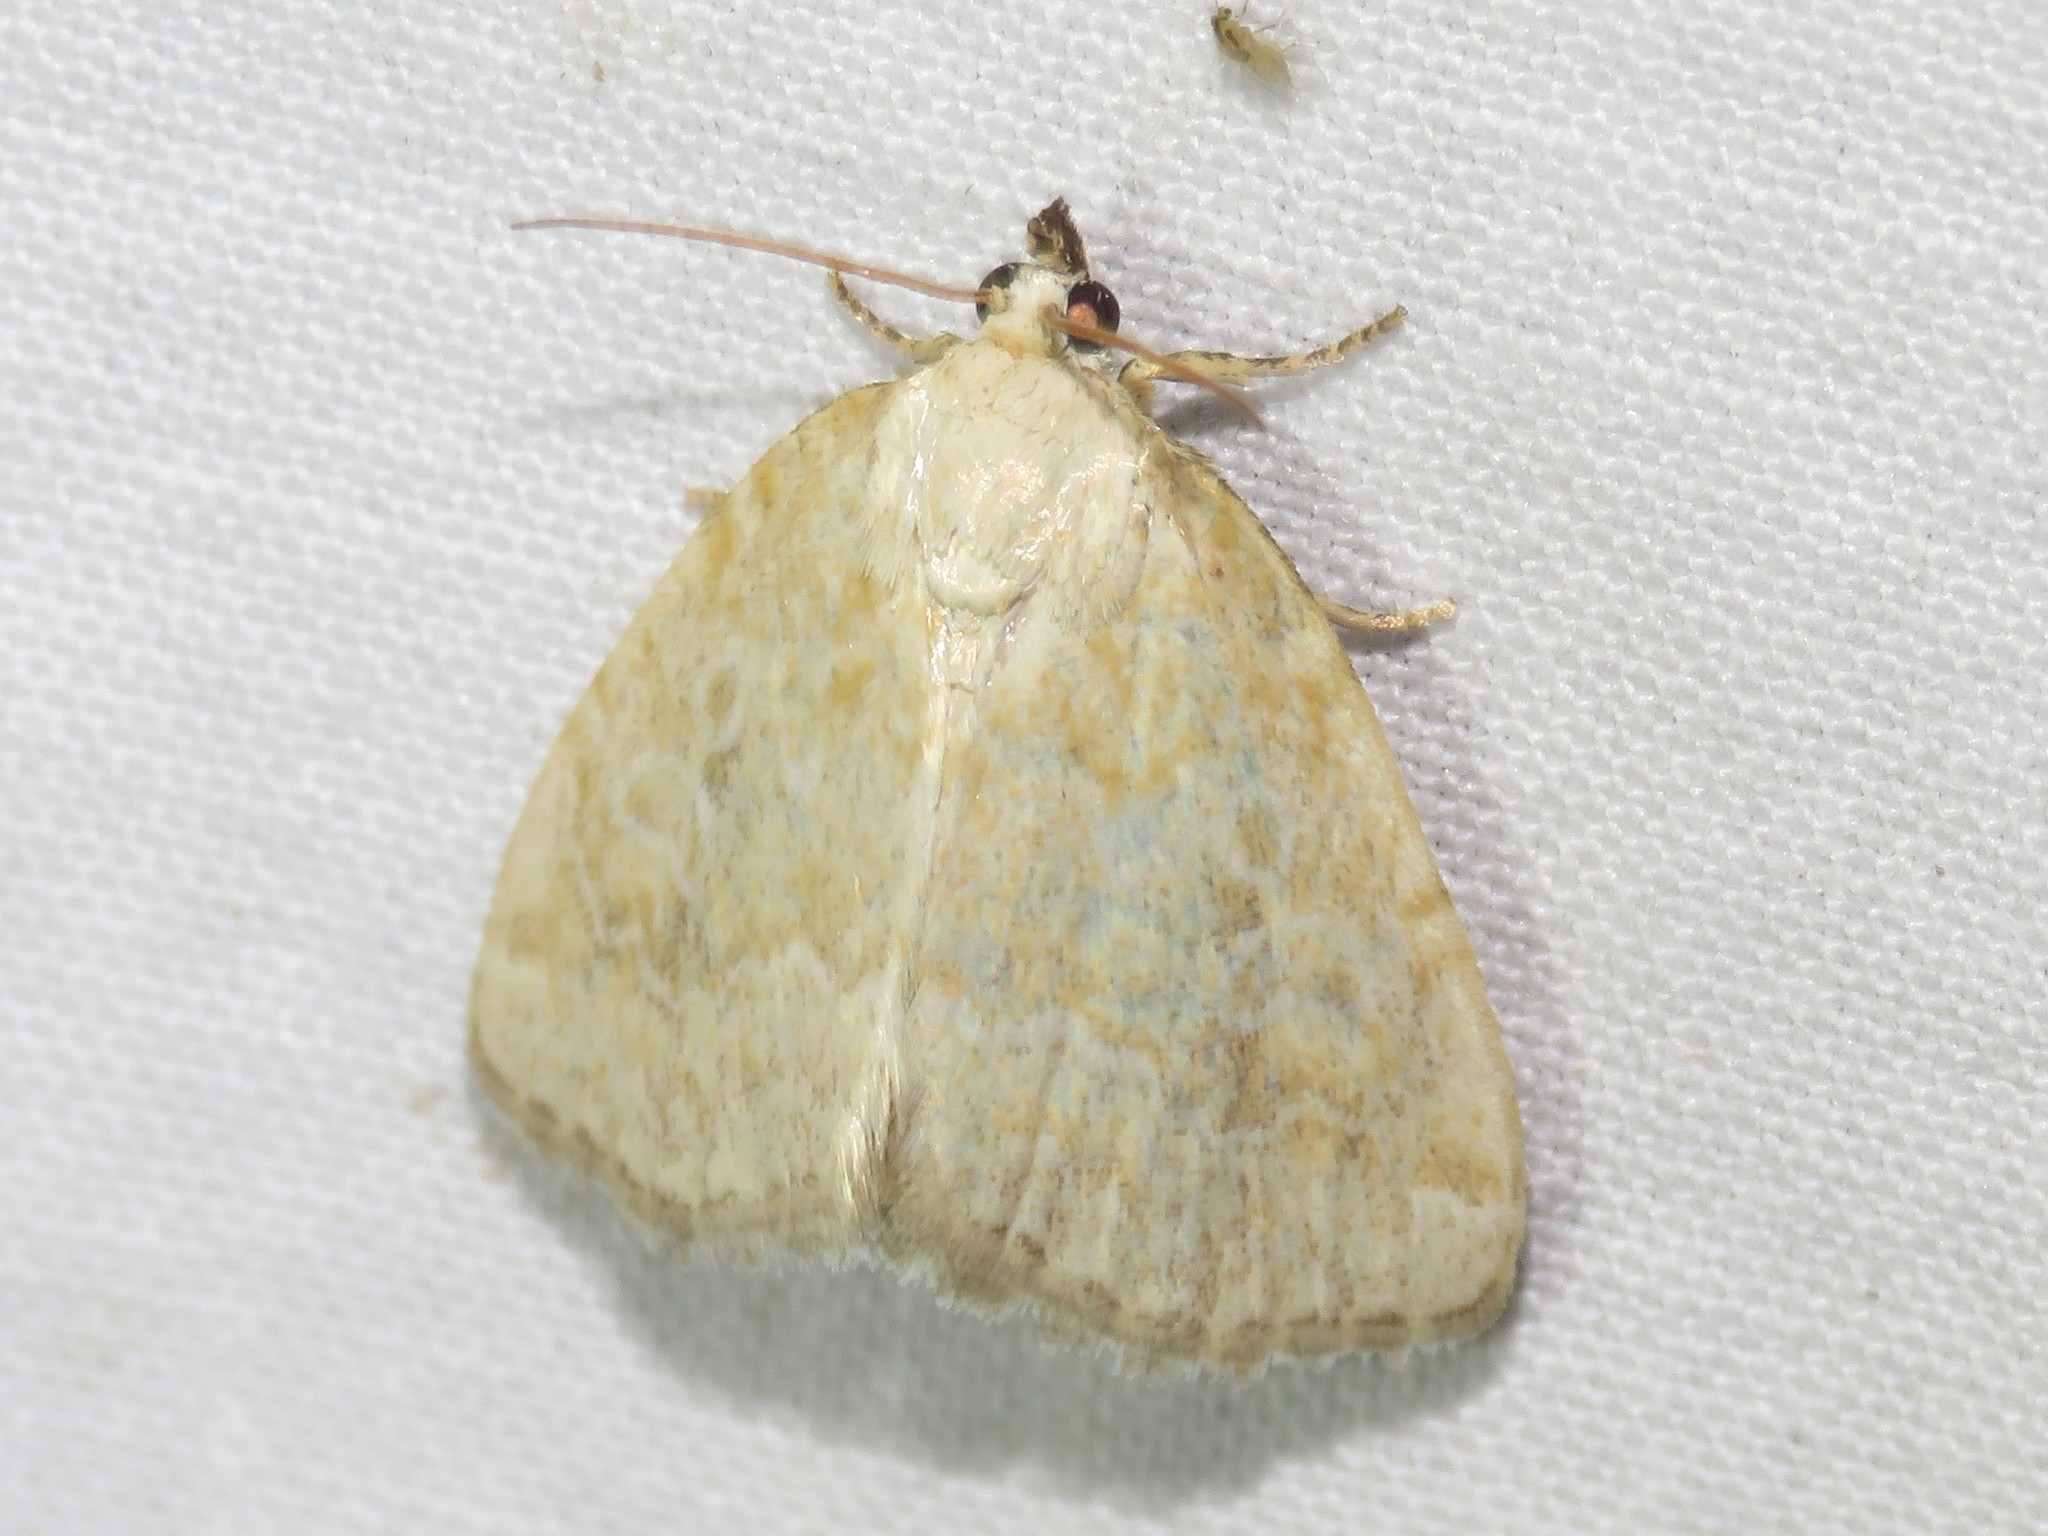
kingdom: Animalia
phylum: Arthropoda
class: Insecta
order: Lepidoptera
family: Noctuidae
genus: Protodeltote
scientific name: Protodeltote albidula
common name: Pale glyph
